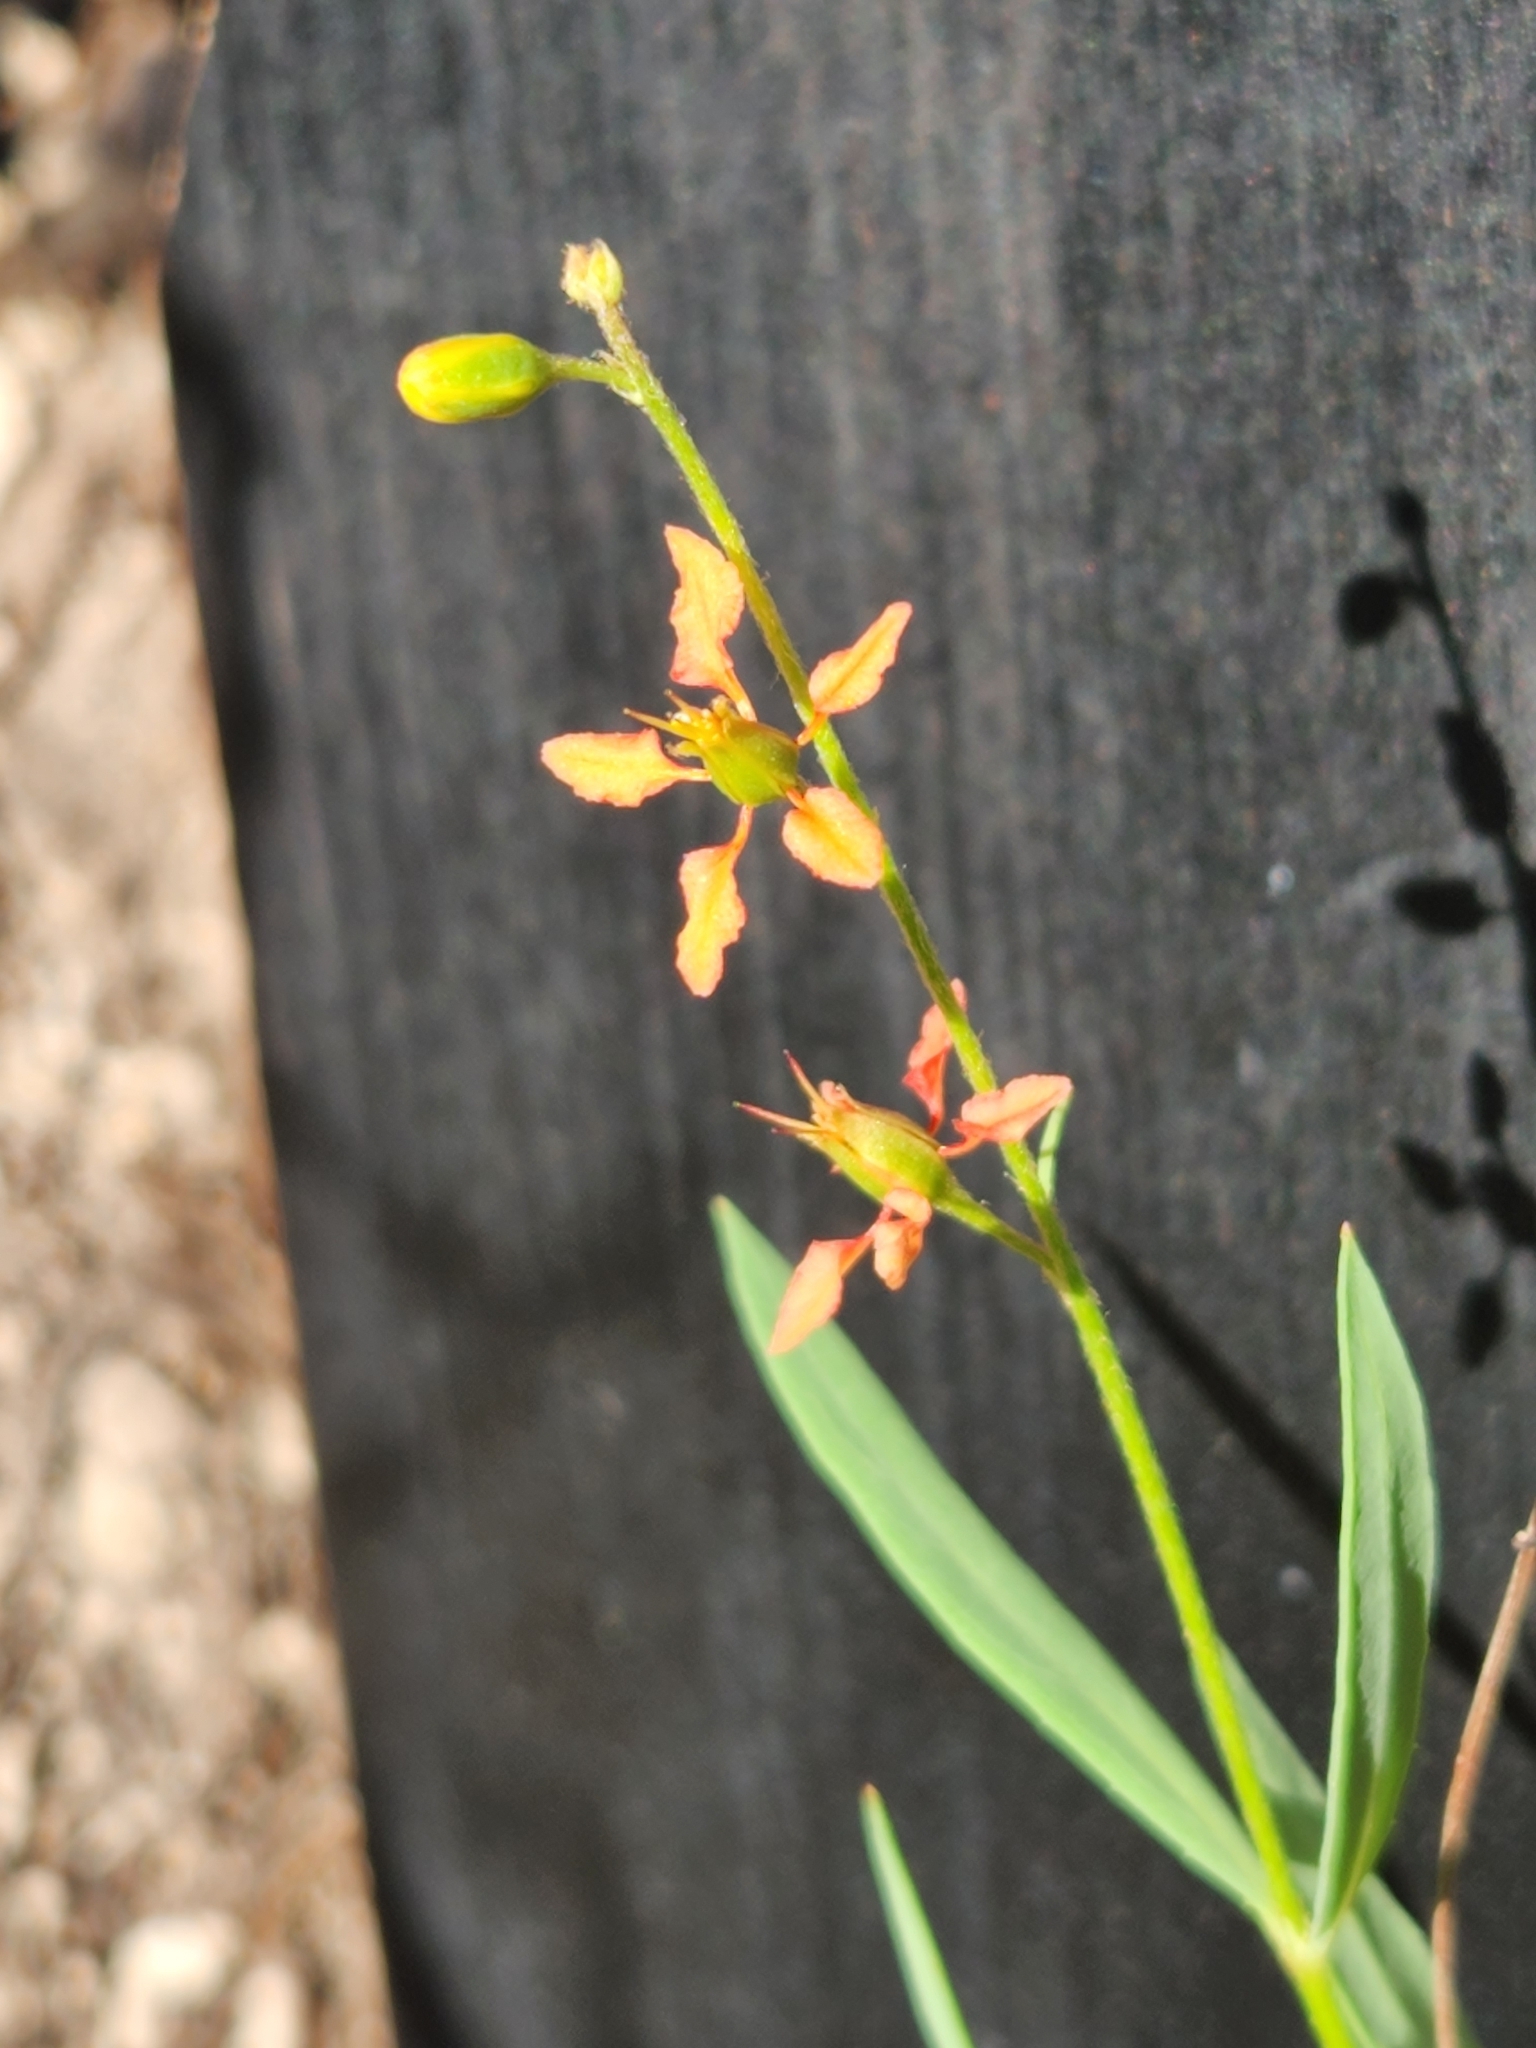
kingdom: Plantae
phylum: Tracheophyta
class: Magnoliopsida
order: Malpighiales
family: Malpighiaceae
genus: Galphimia
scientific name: Galphimia angustifolia
